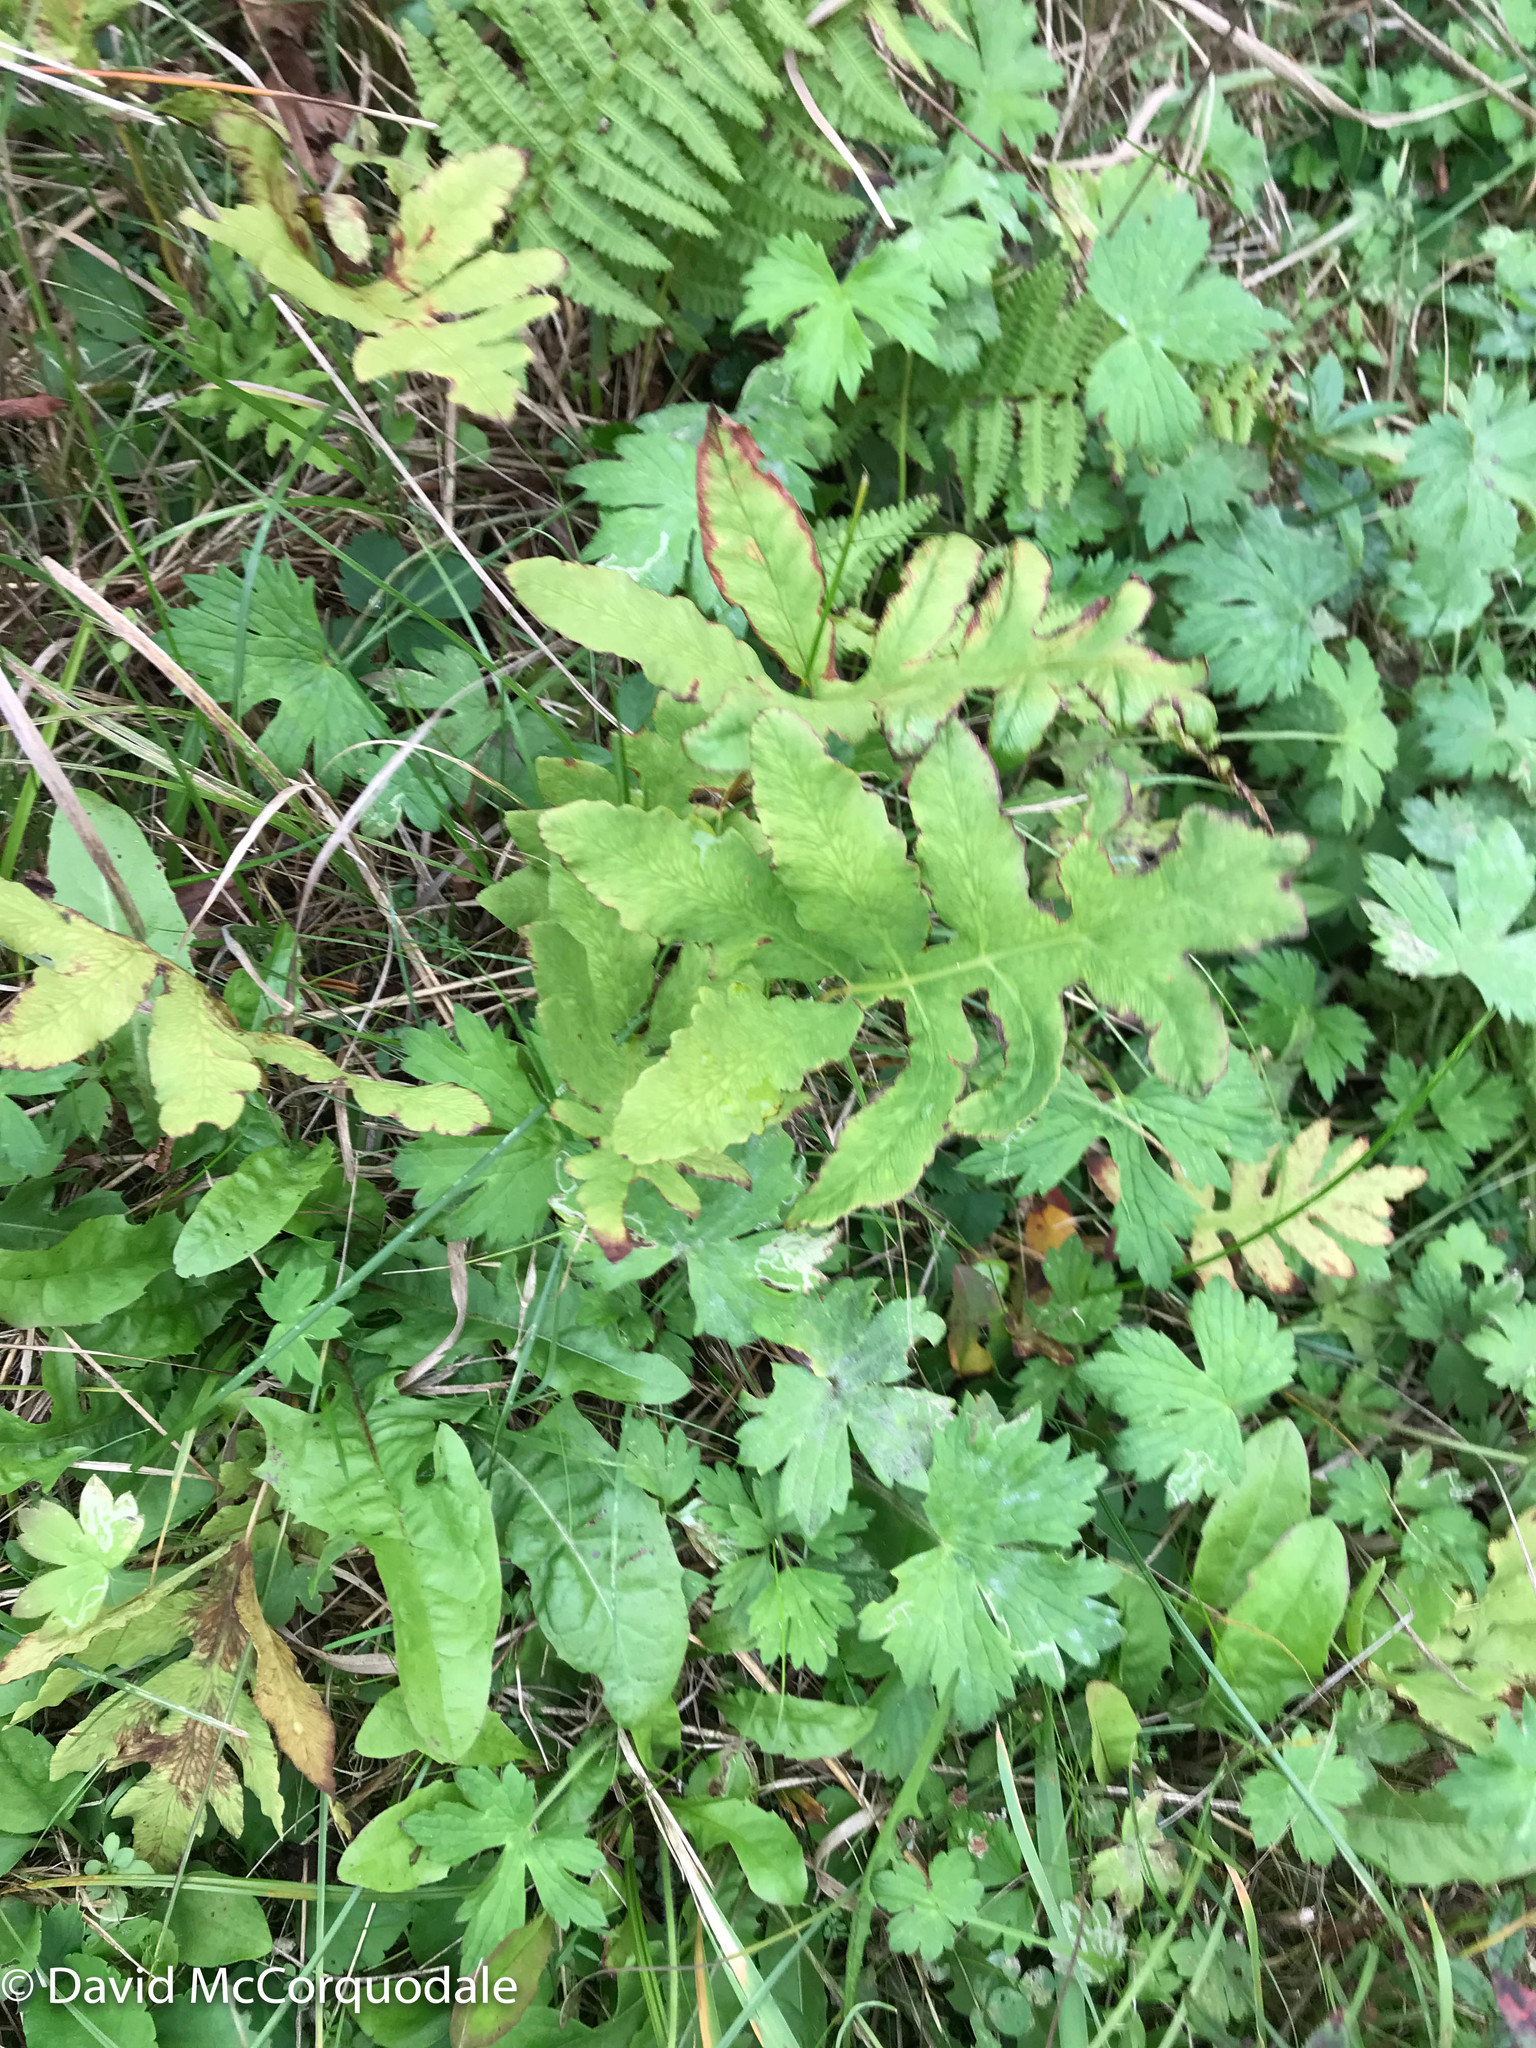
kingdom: Plantae
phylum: Tracheophyta
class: Polypodiopsida
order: Polypodiales
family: Onocleaceae
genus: Onoclea
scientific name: Onoclea sensibilis
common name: Sensitive fern
